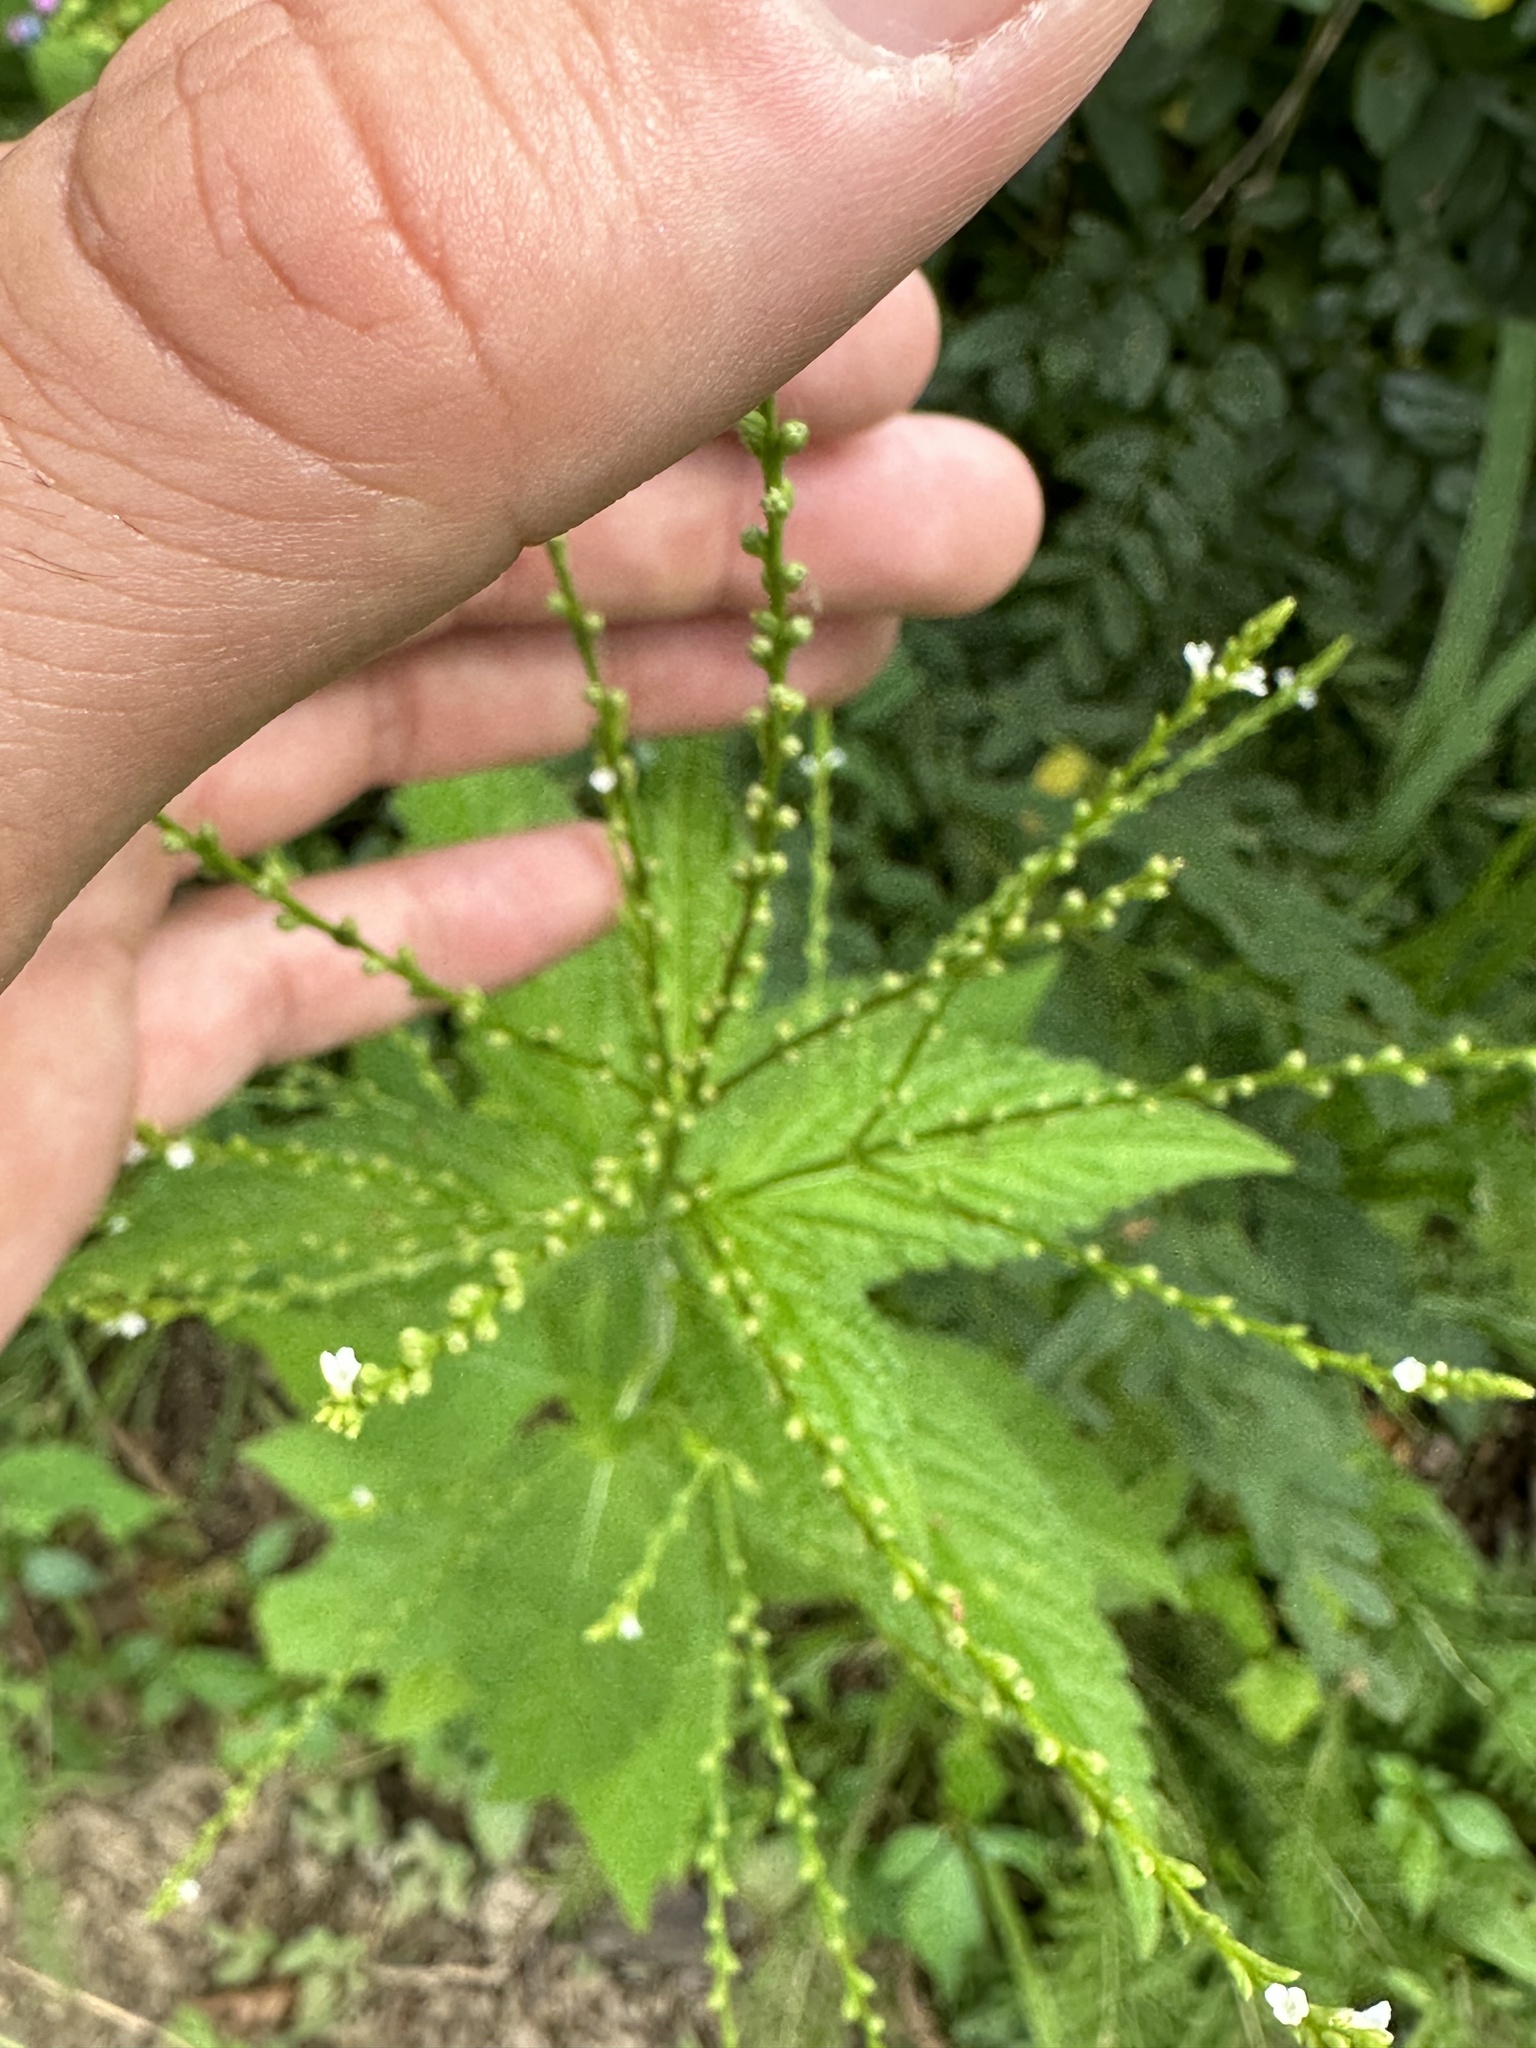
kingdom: Plantae
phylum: Tracheophyta
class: Magnoliopsida
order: Lamiales
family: Verbenaceae
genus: Verbena
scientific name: Verbena urticifolia
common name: Nettle-leaved vervain
